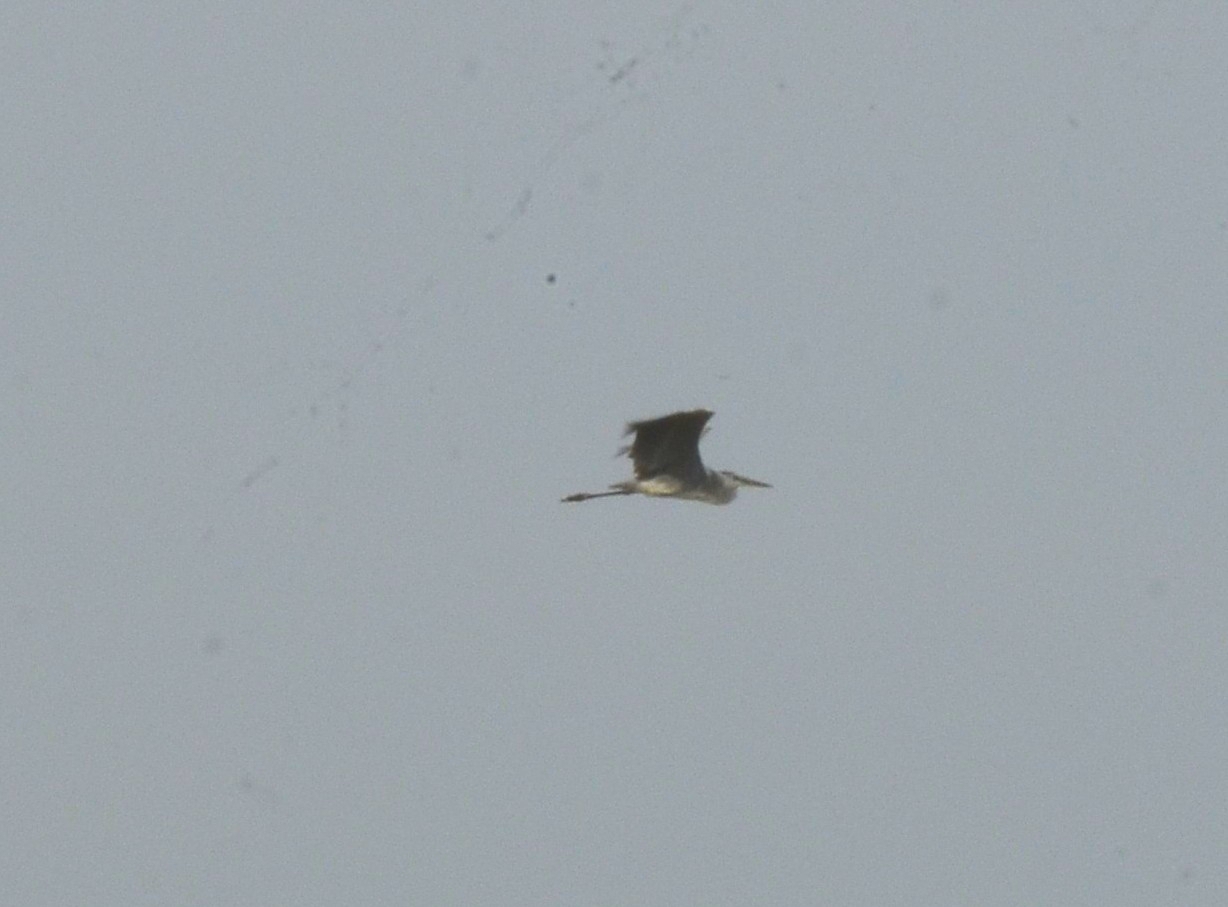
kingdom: Animalia
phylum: Chordata
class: Aves
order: Pelecaniformes
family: Ardeidae
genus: Ardea
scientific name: Ardea cinerea
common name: Grey heron
